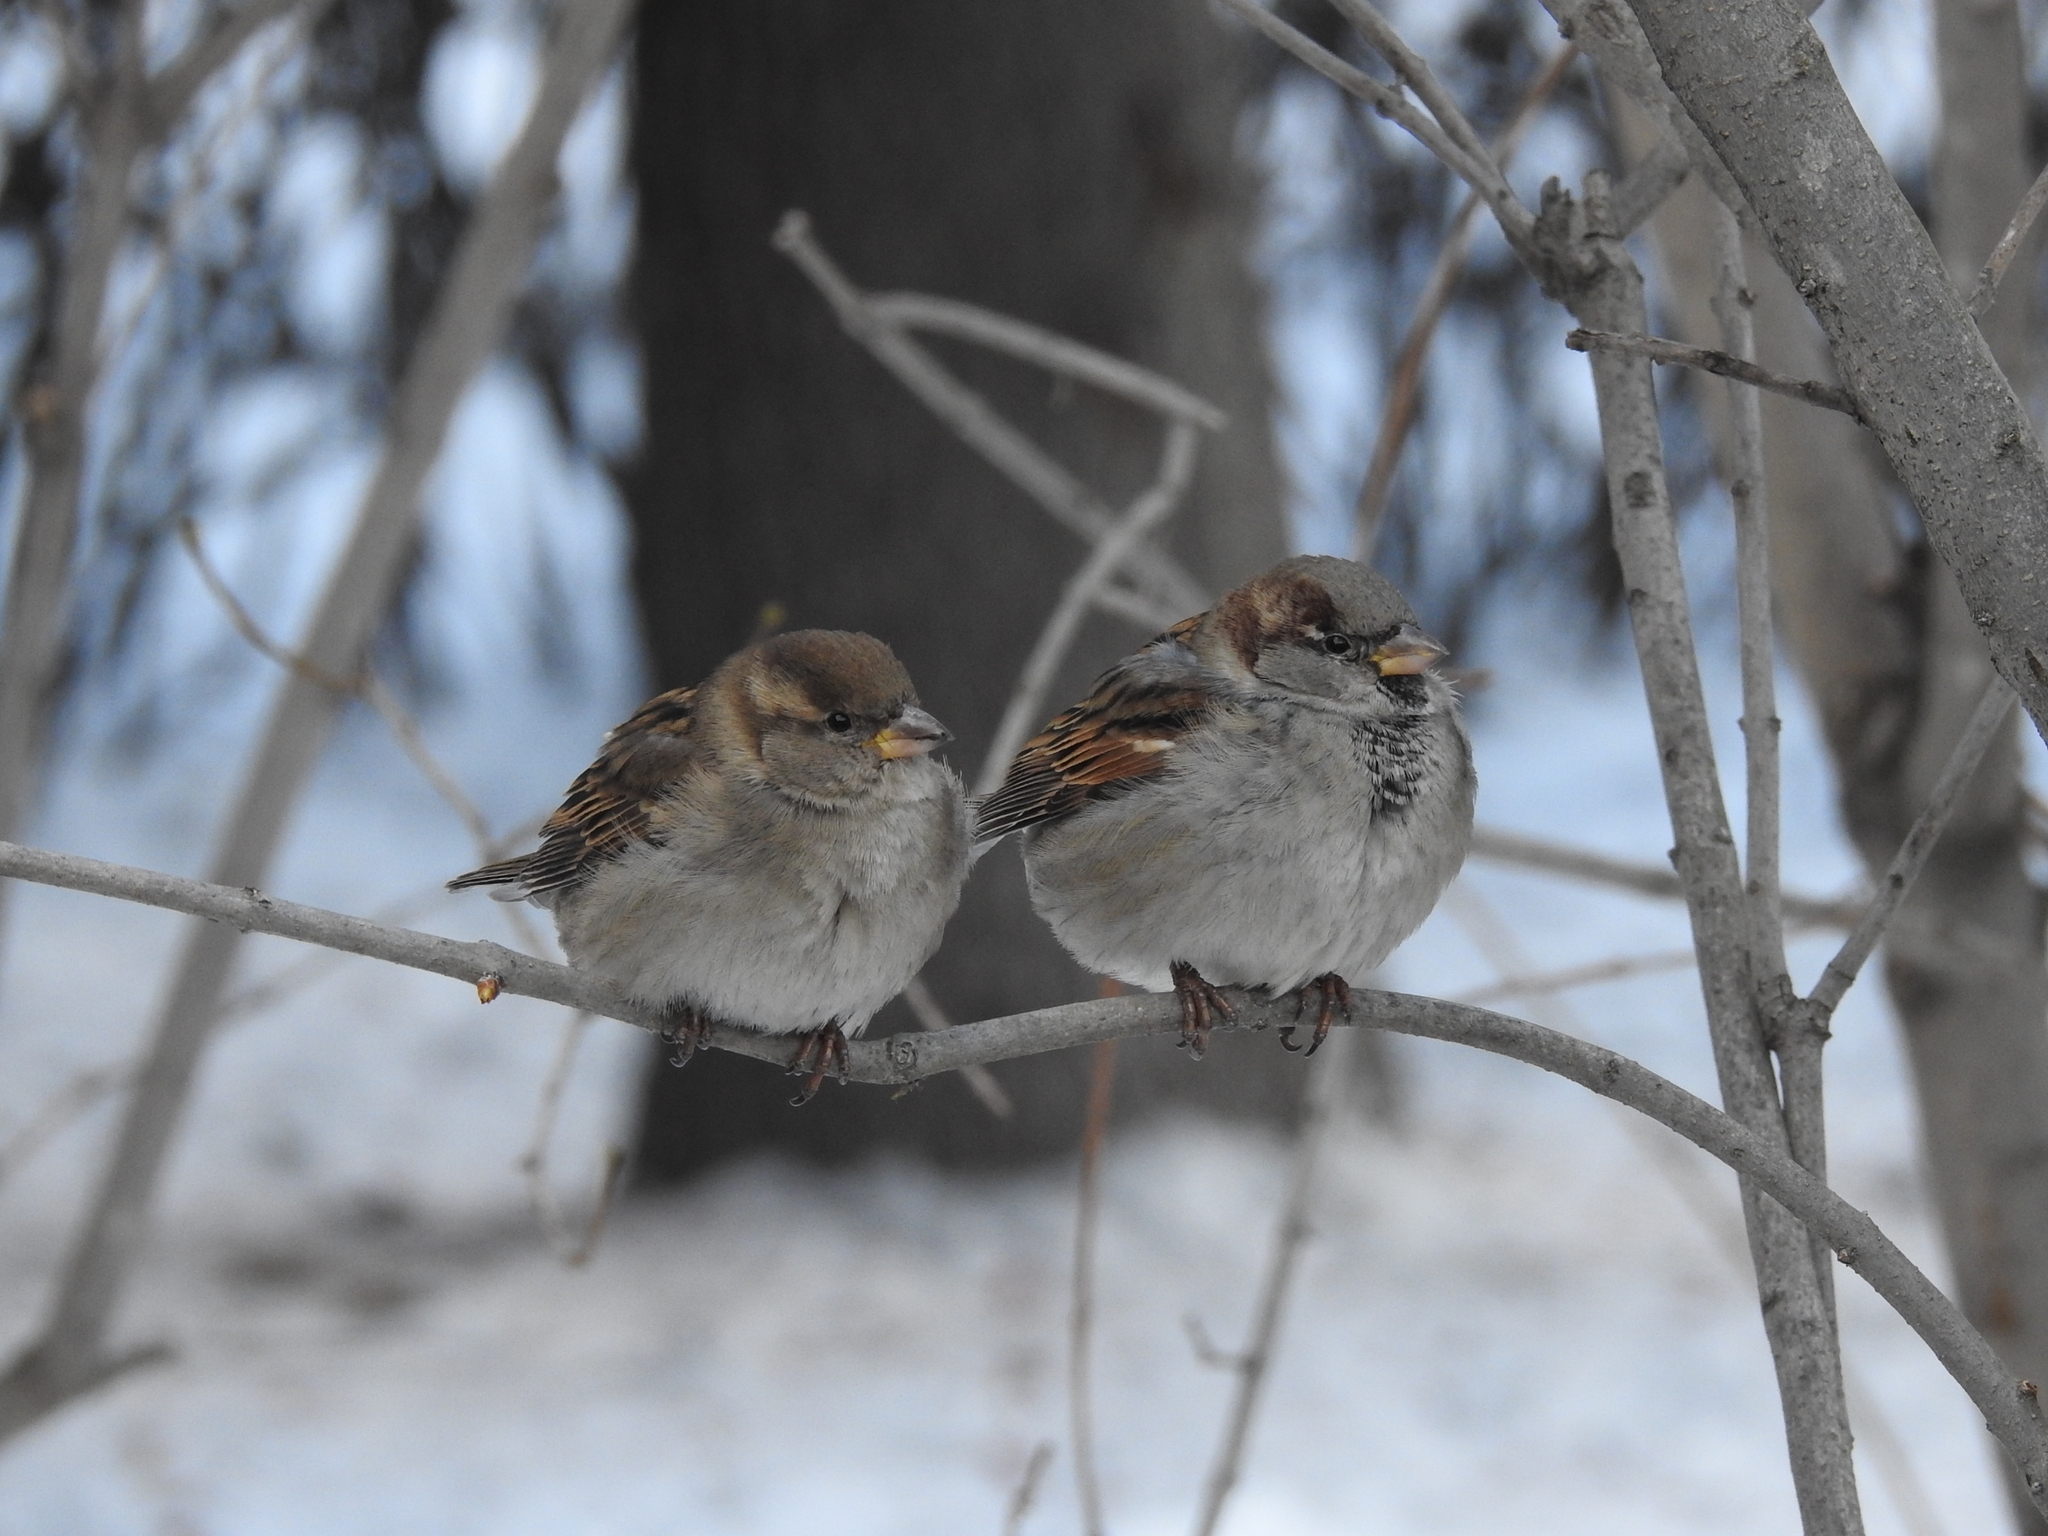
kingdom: Animalia
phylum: Chordata
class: Aves
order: Passeriformes
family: Passeridae
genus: Passer
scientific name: Passer domesticus
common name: House sparrow
